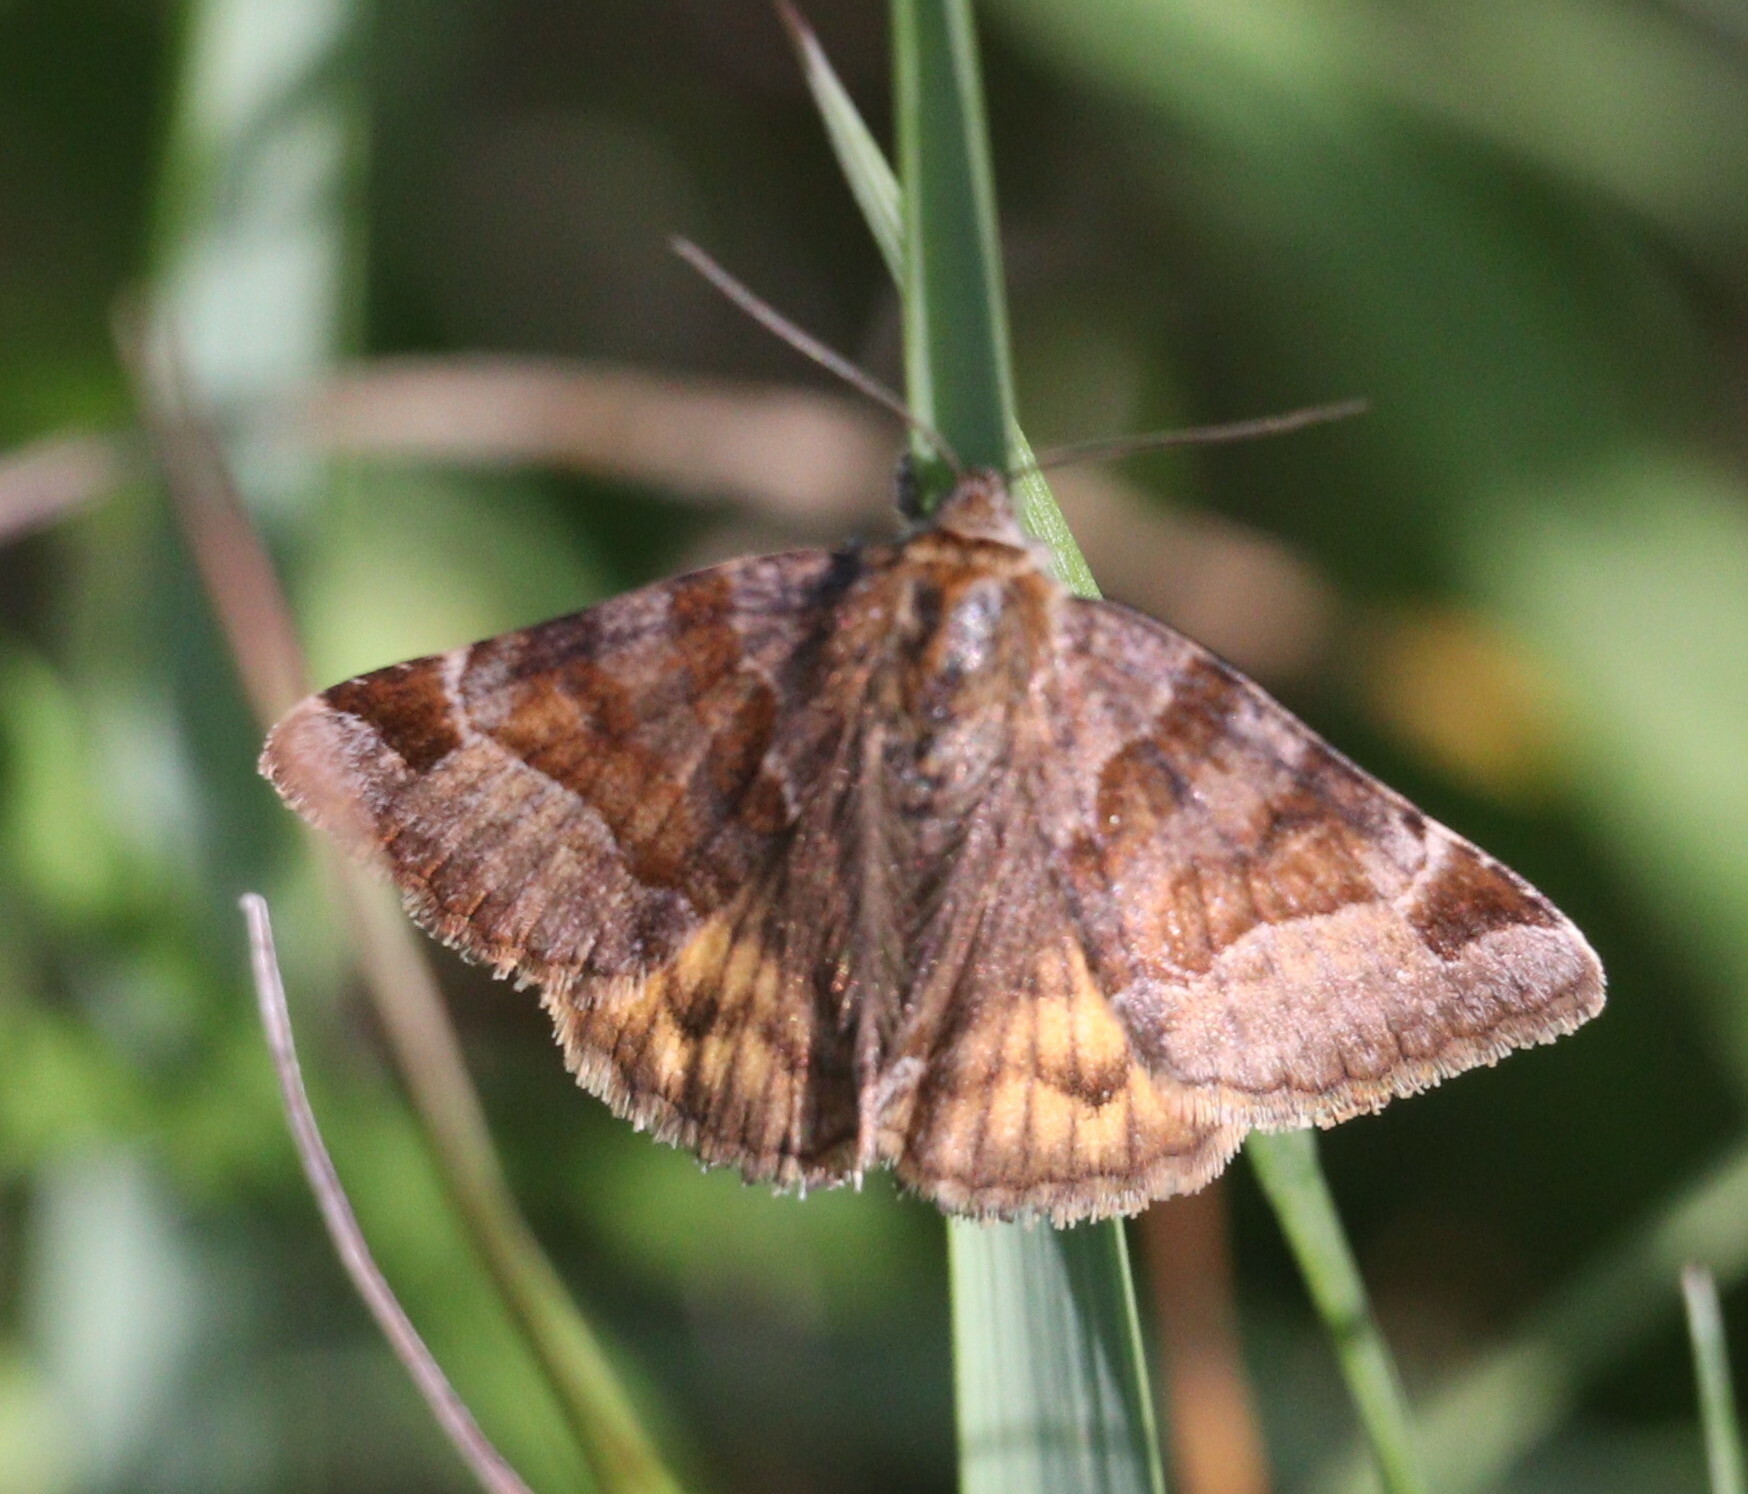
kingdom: Animalia
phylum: Arthropoda
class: Insecta
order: Lepidoptera
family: Erebidae
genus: Euclidia
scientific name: Euclidia glyphica
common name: Burnet companion
